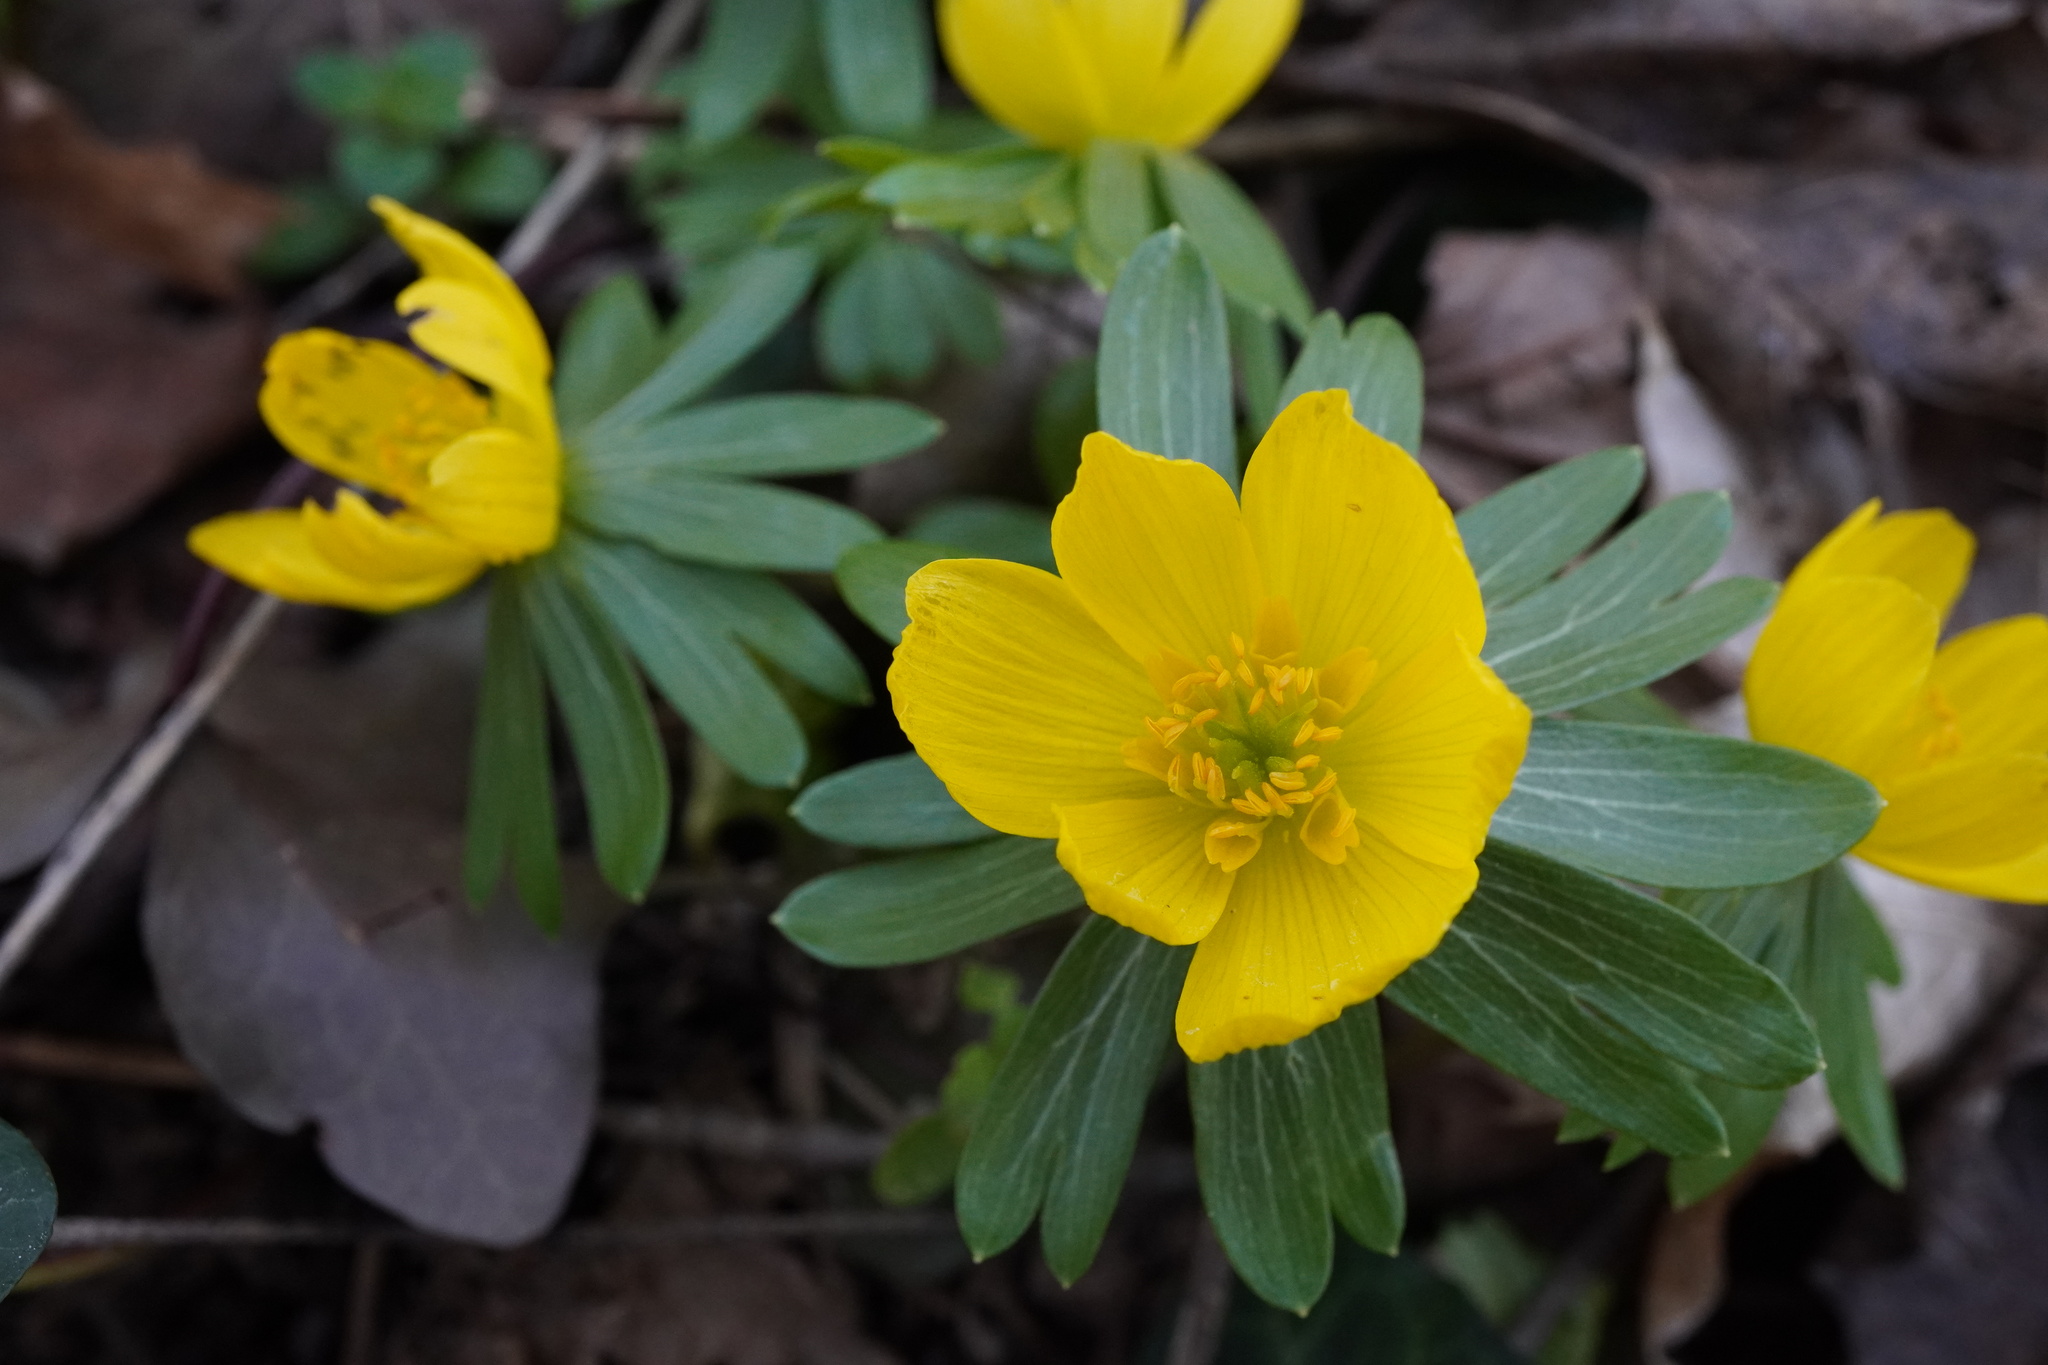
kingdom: Plantae
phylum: Tracheophyta
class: Magnoliopsida
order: Ranunculales
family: Ranunculaceae
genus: Eranthis
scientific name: Eranthis hyemalis
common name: Winter aconite
